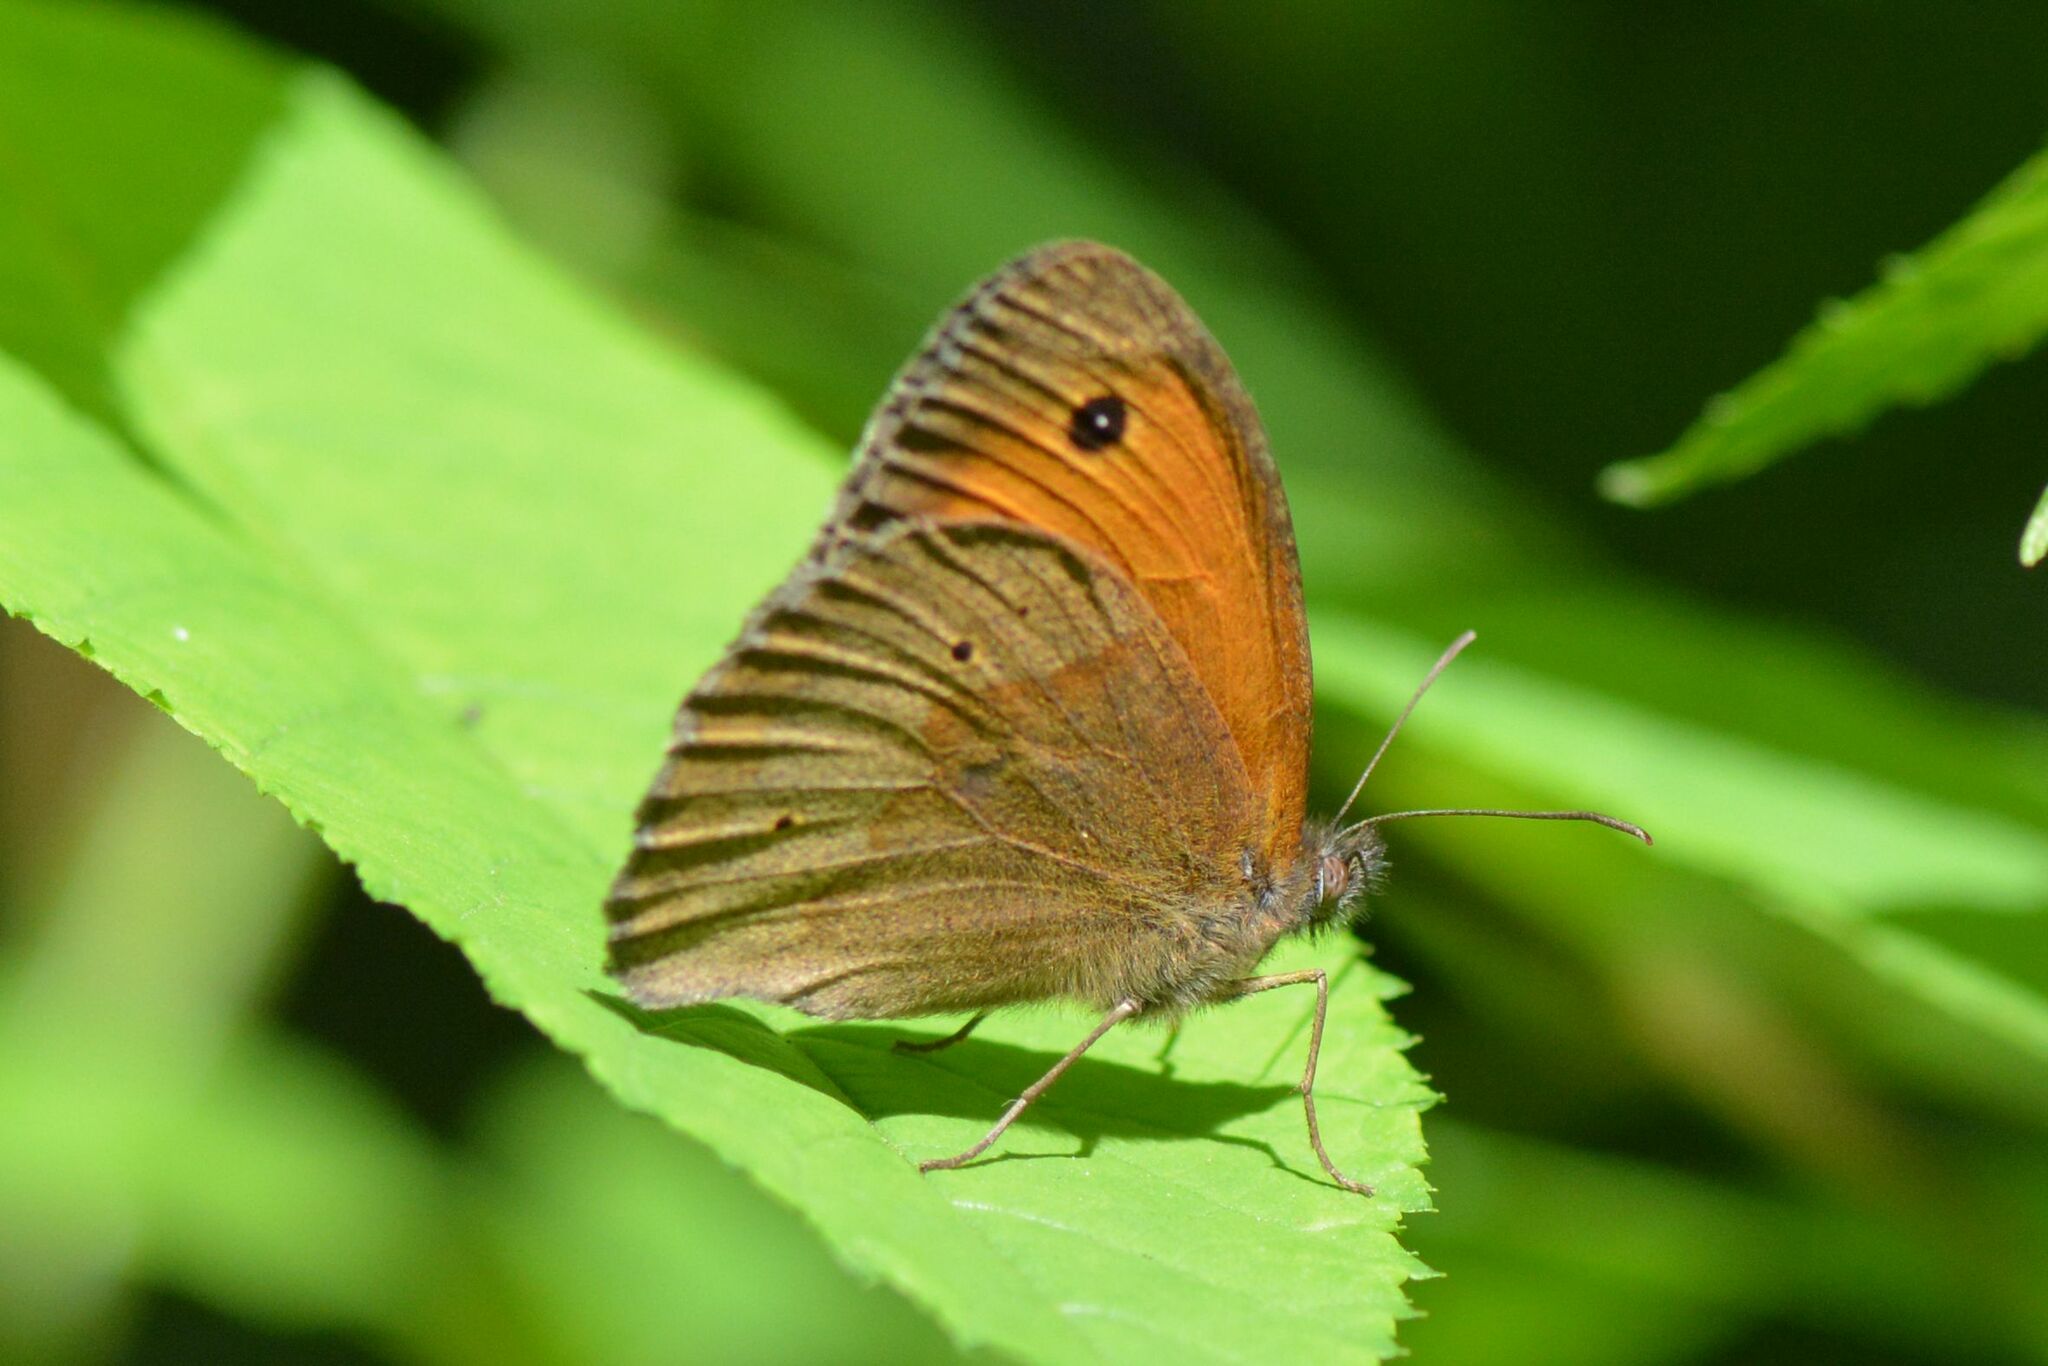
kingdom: Animalia
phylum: Arthropoda
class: Insecta
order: Lepidoptera
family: Nymphalidae
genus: Maniola
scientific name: Maniola jurtina
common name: Meadow brown
